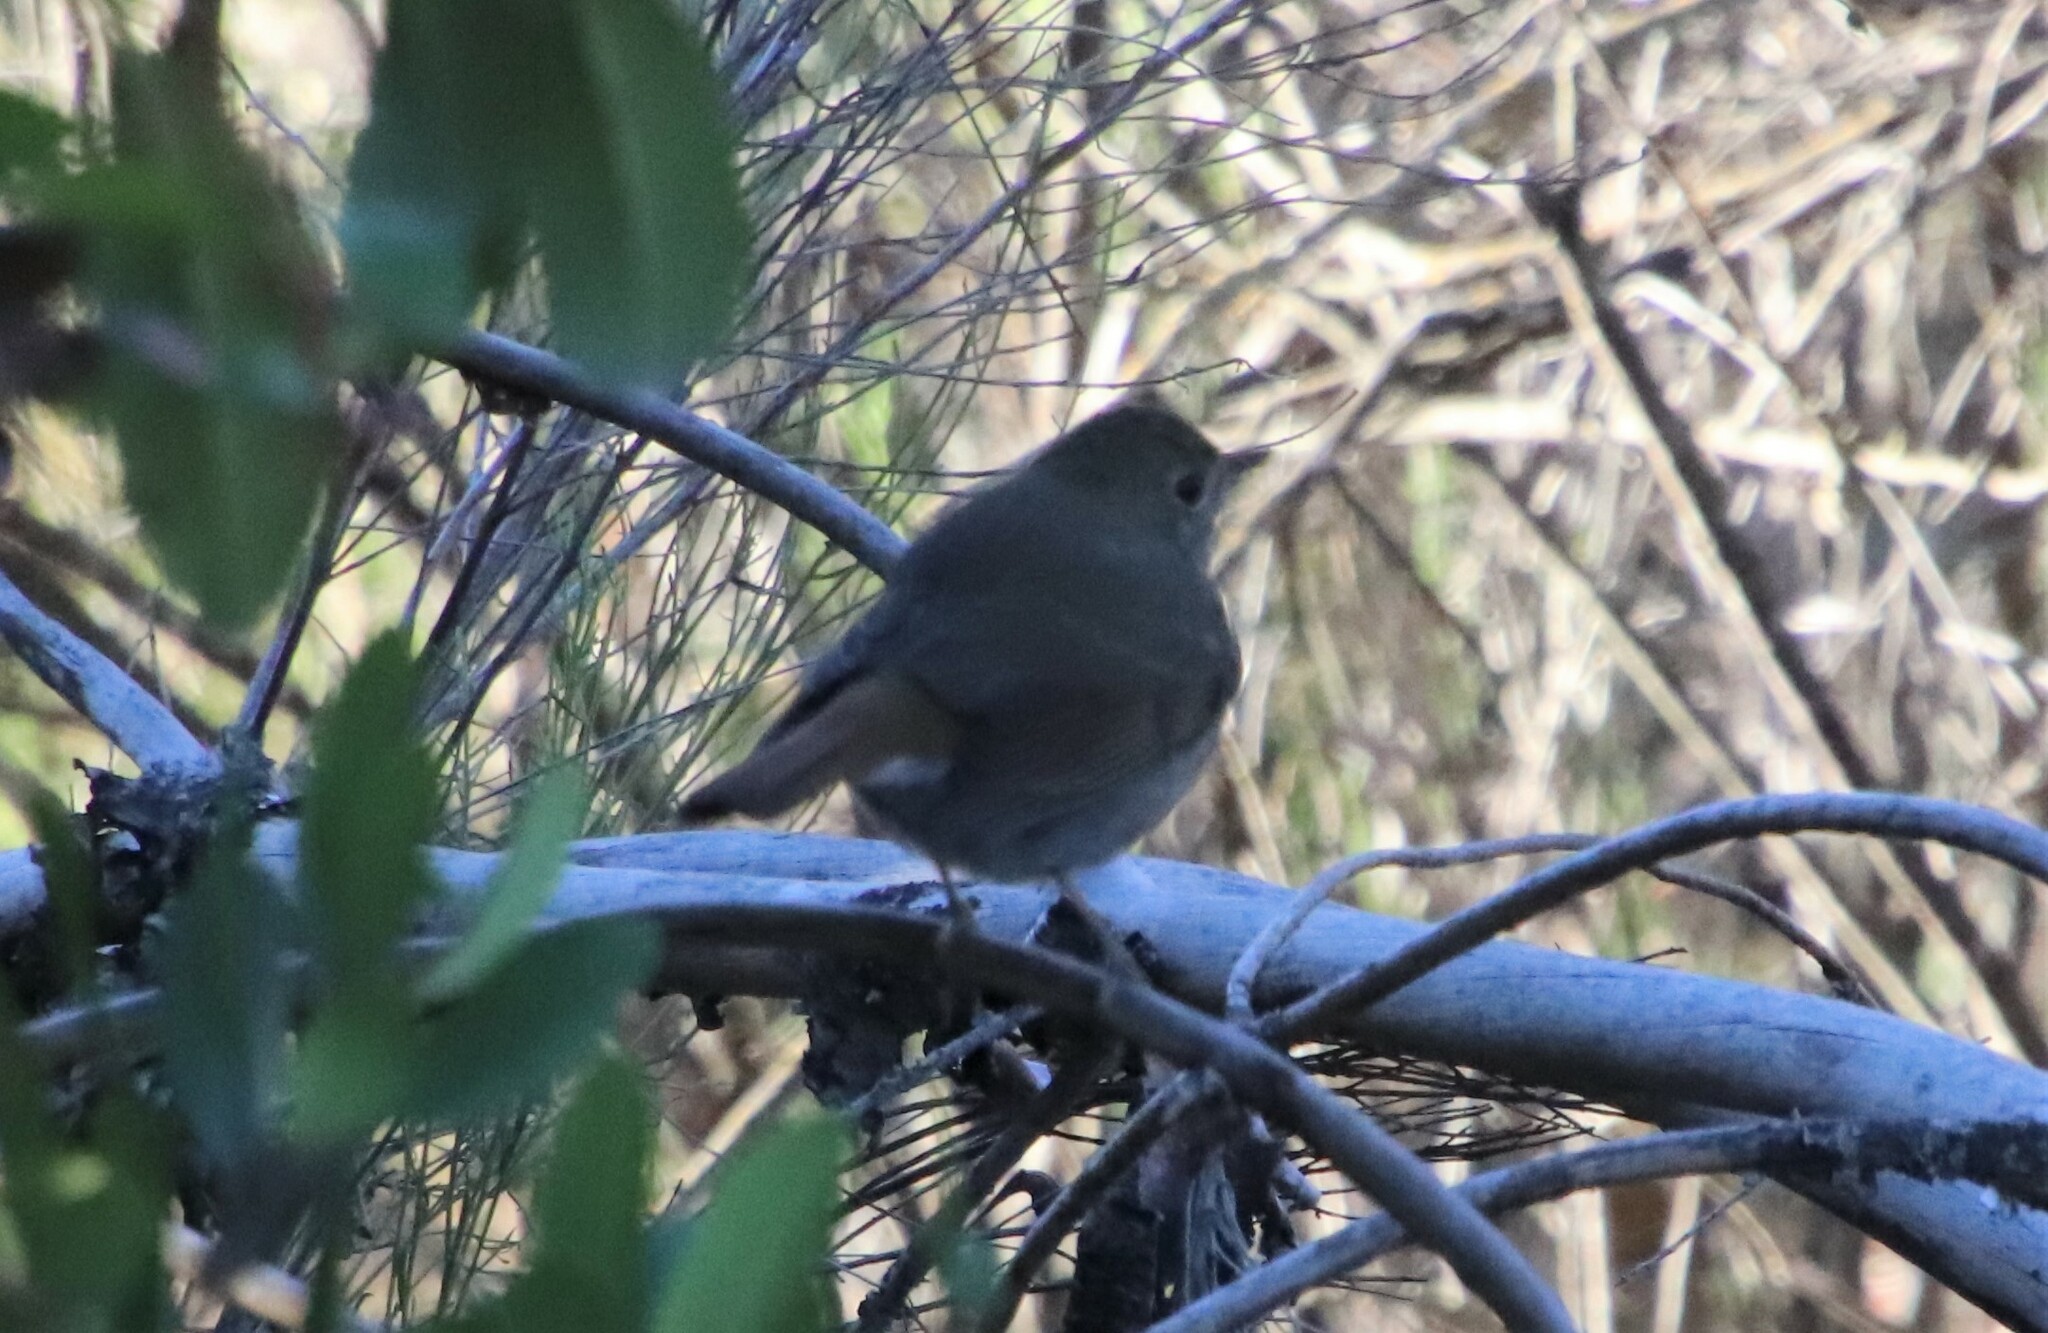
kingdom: Animalia
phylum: Chordata
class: Aves
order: Passeriformes
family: Turdidae
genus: Catharus
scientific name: Catharus guttatus
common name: Hermit thrush
